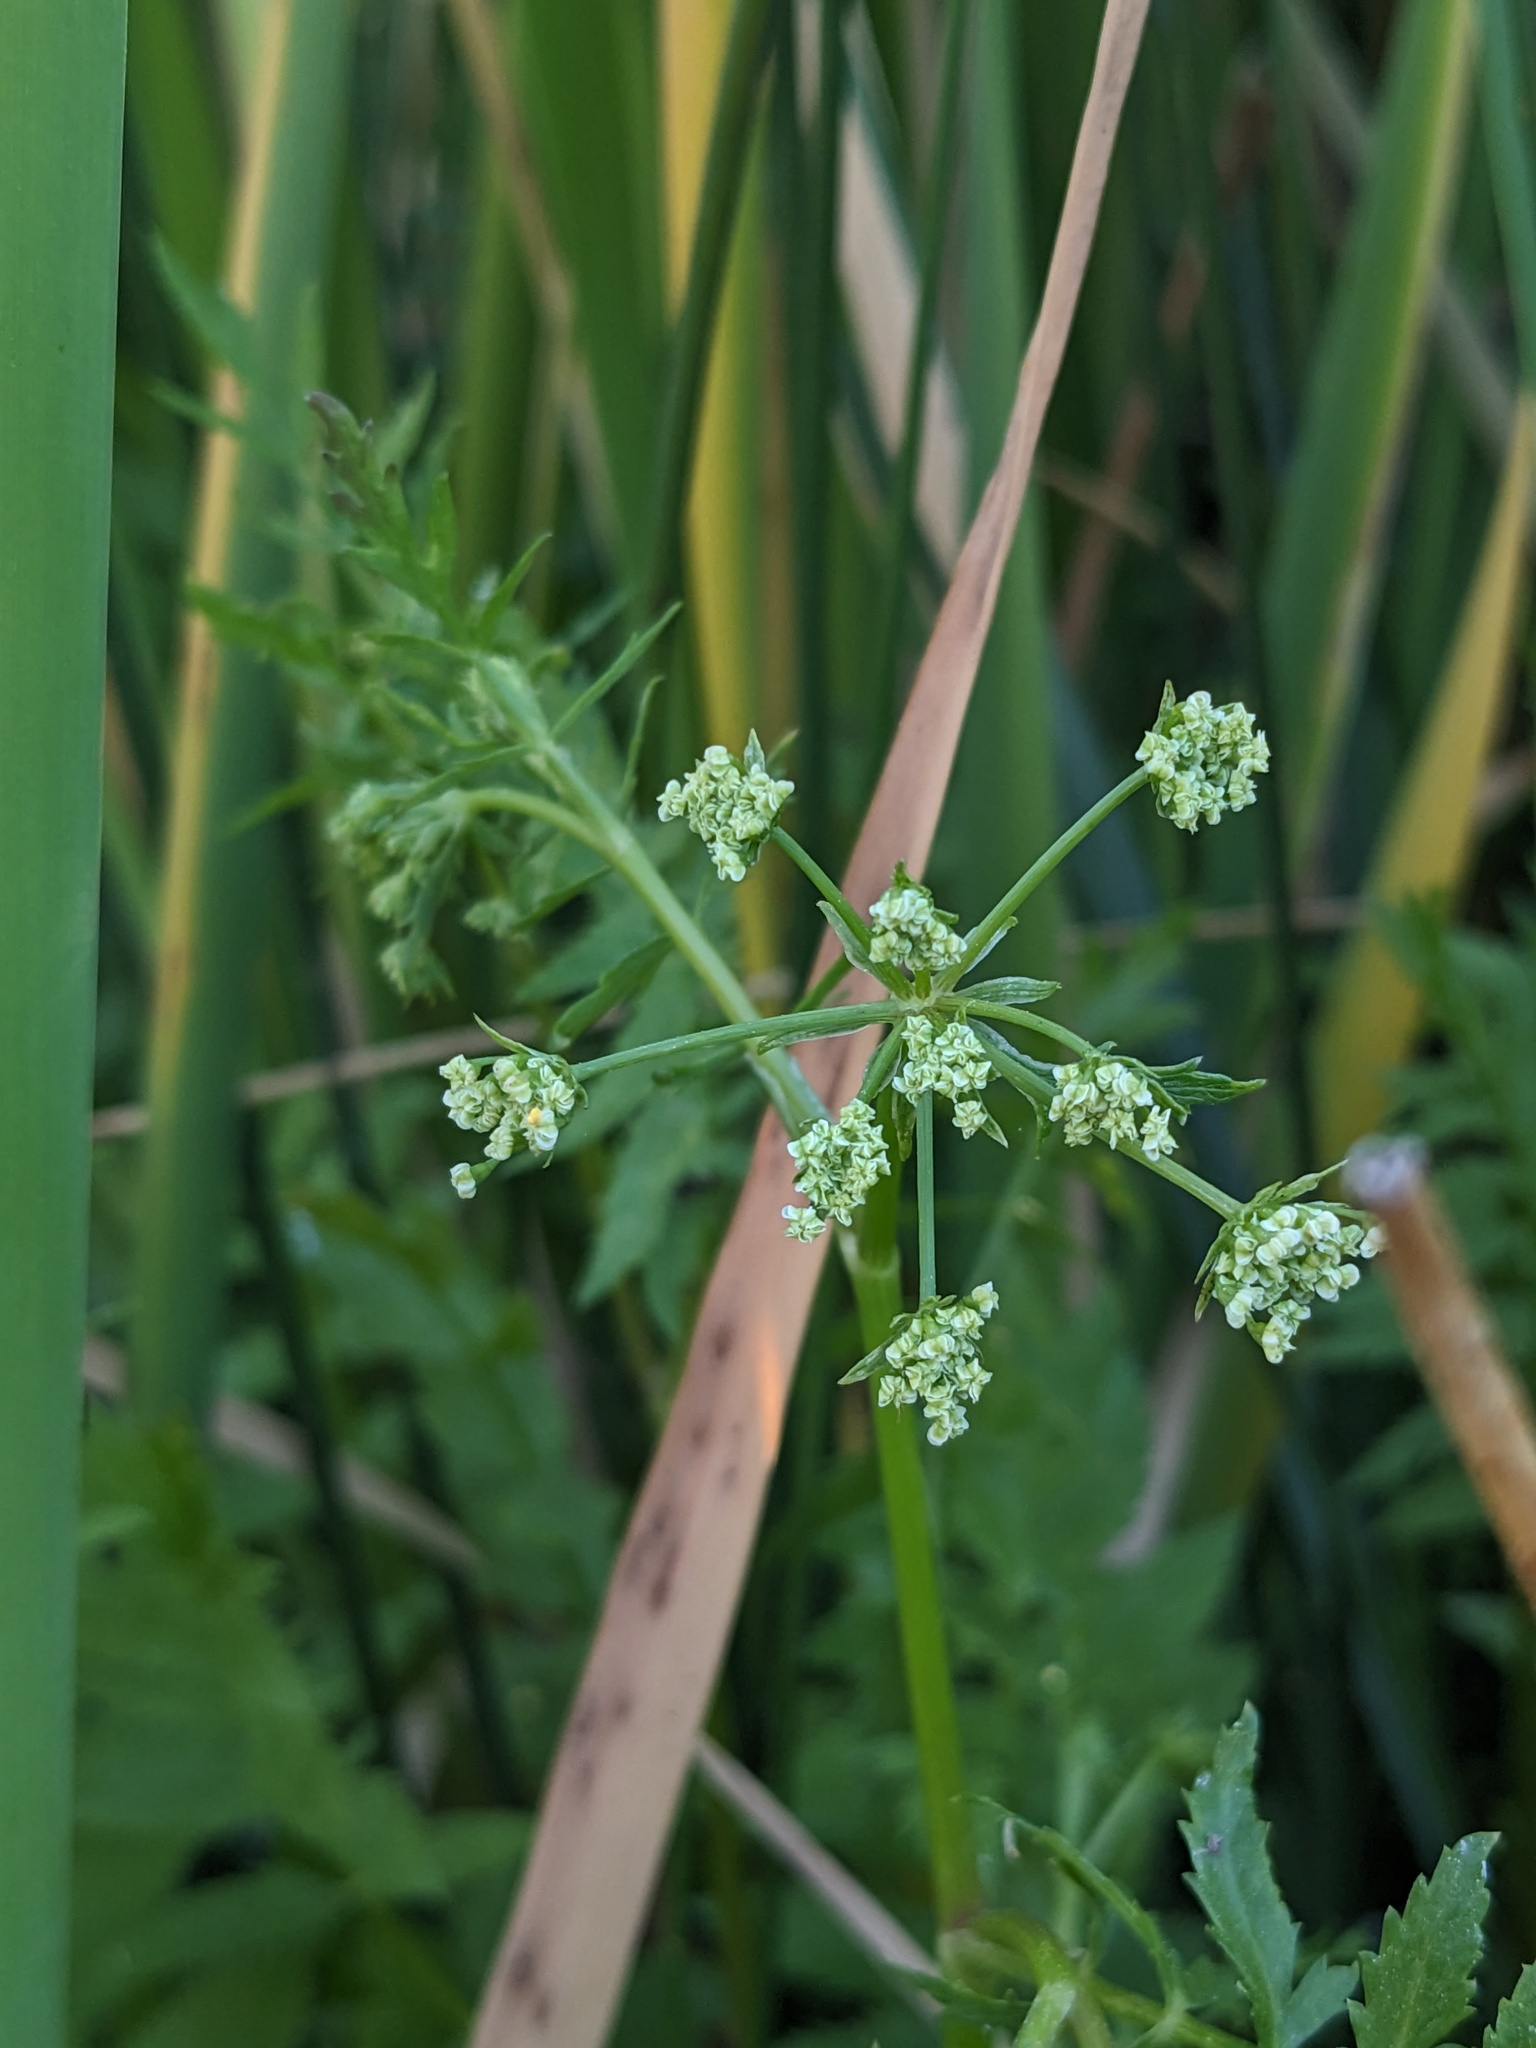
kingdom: Plantae
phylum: Tracheophyta
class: Magnoliopsida
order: Apiales
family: Apiaceae
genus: Berula
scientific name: Berula erecta
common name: Lesser water-parsnip
